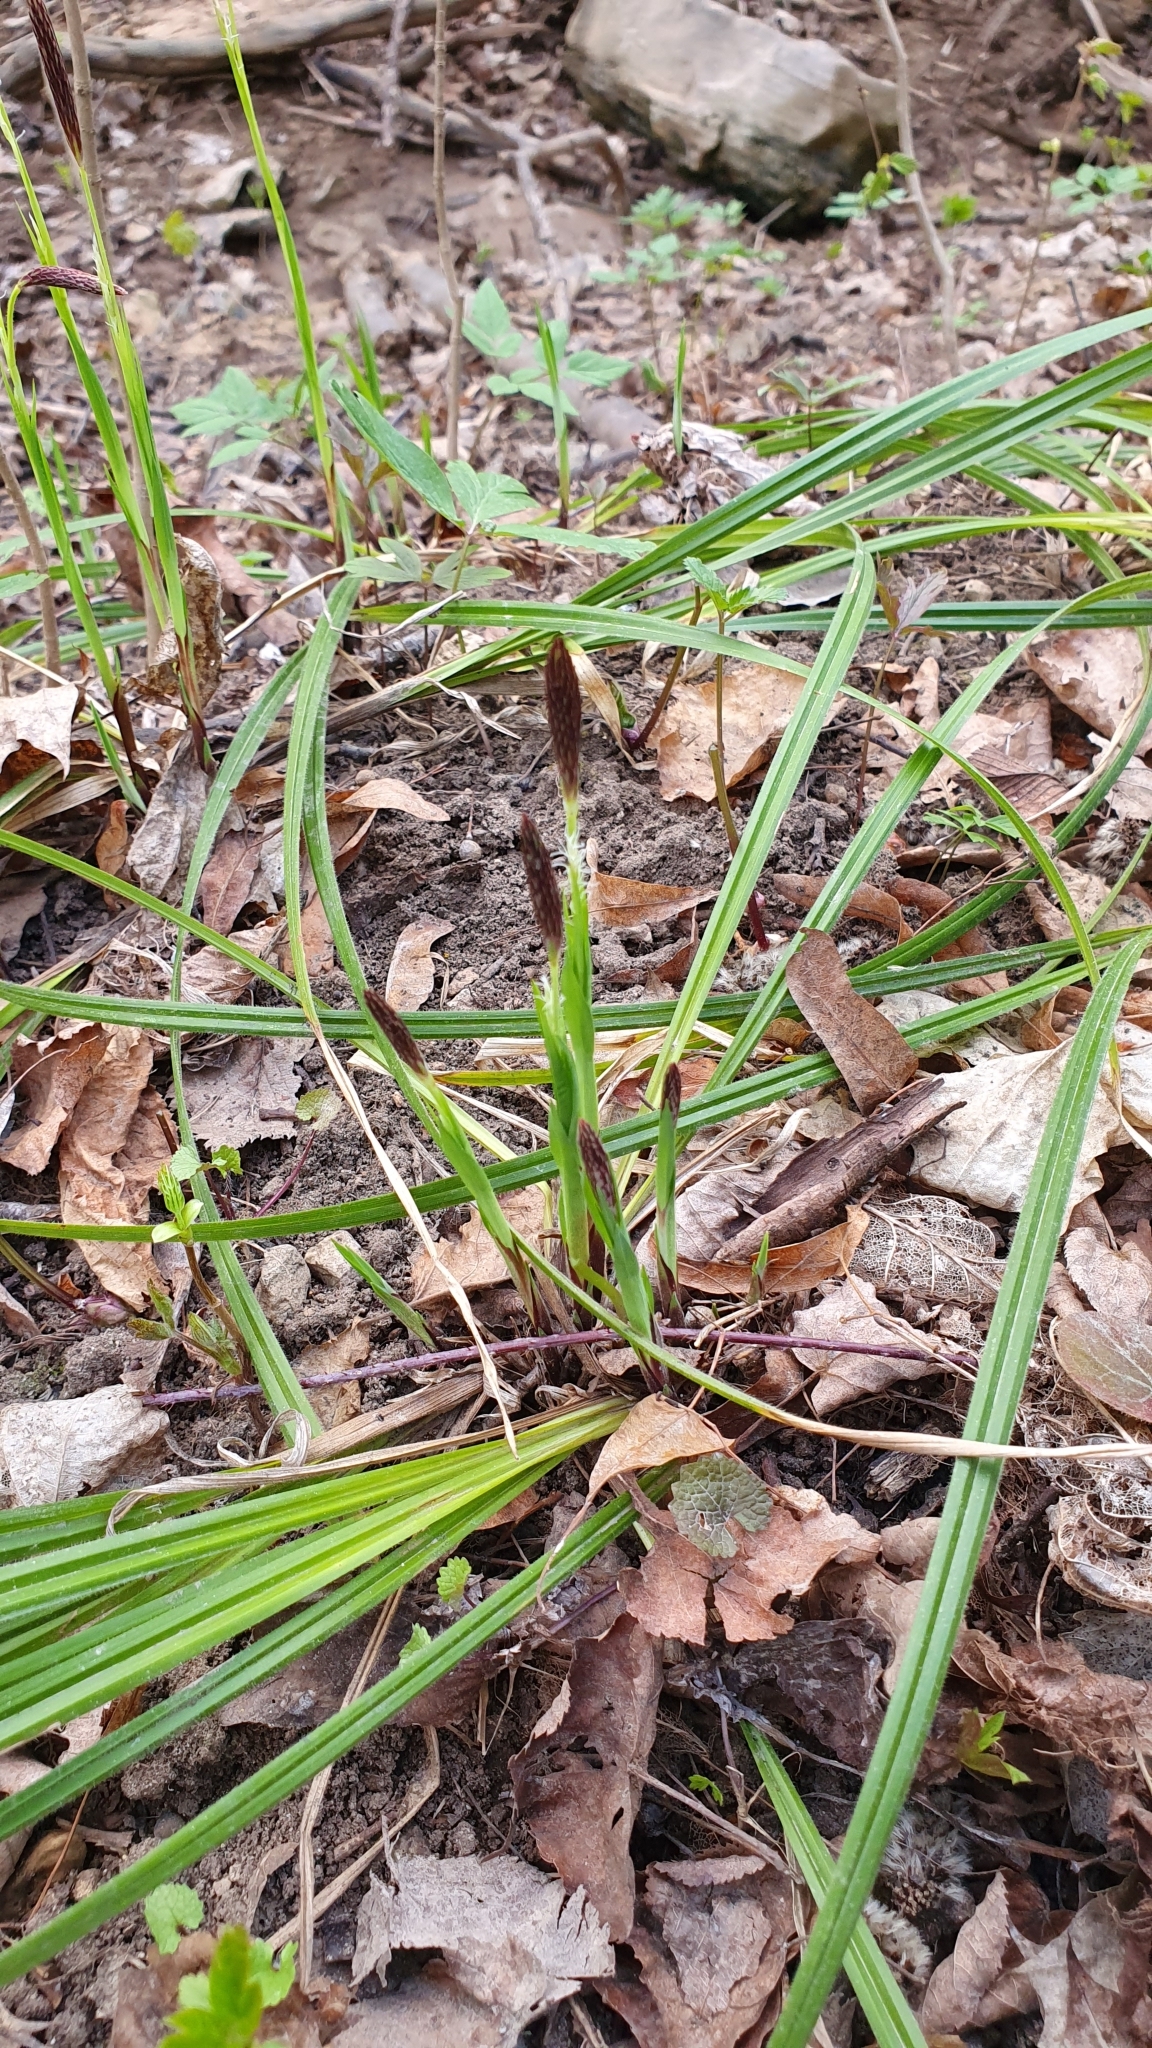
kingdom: Plantae
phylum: Tracheophyta
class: Liliopsida
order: Poales
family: Cyperaceae
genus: Carex
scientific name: Carex pilosa
